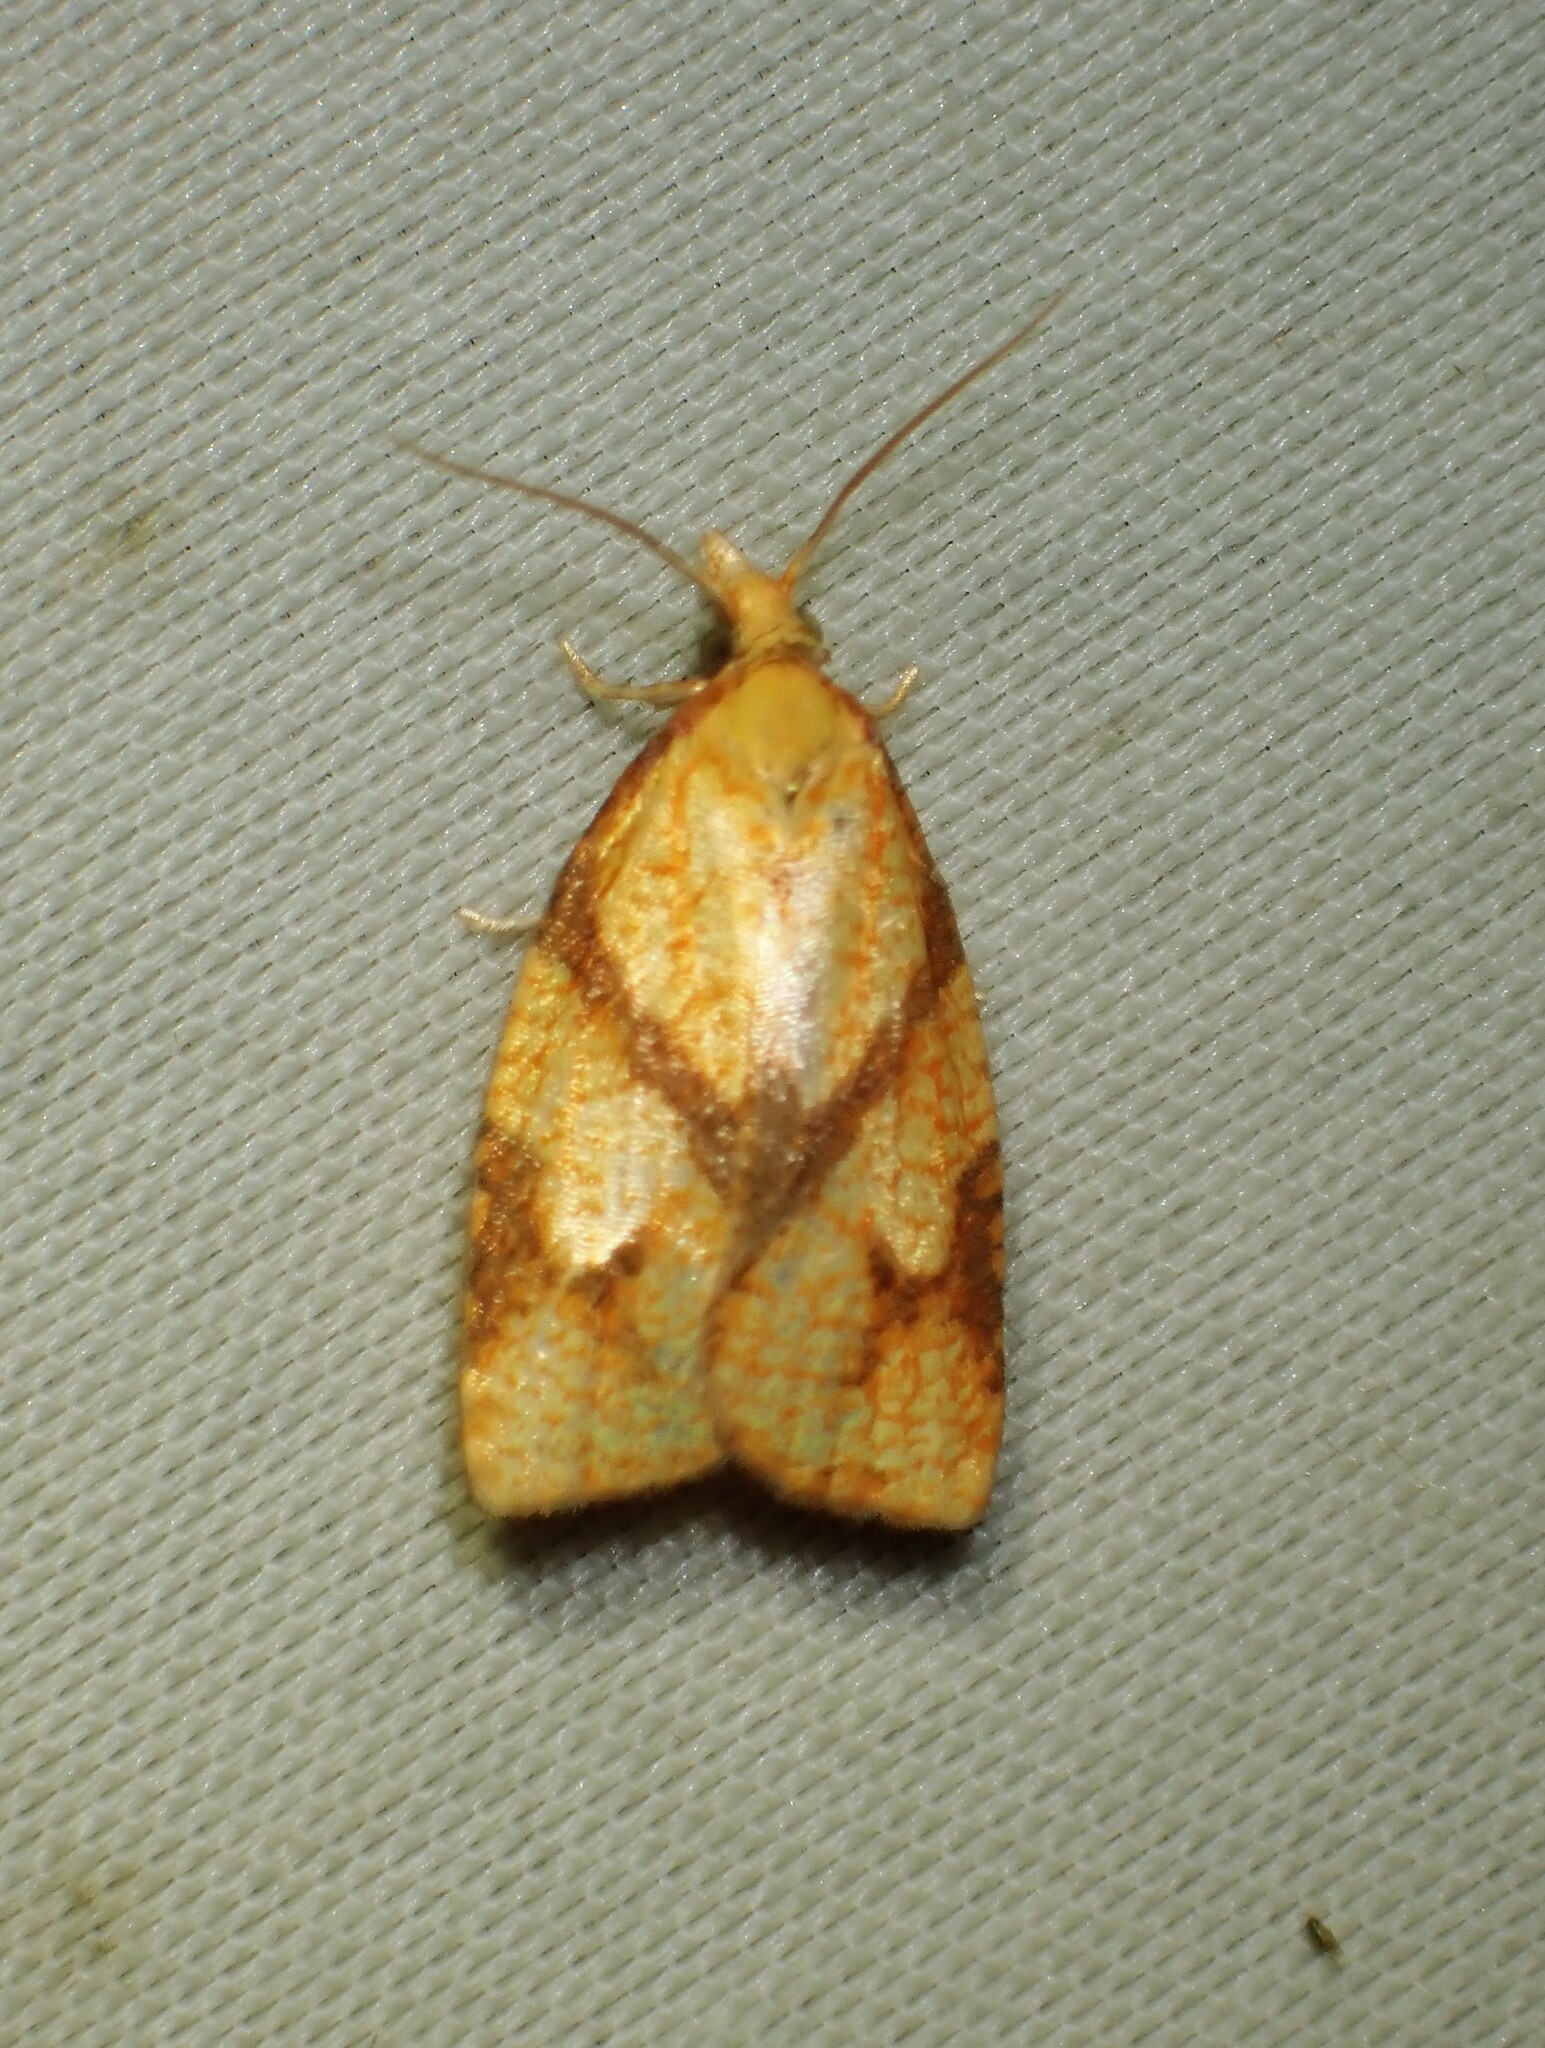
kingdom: Animalia
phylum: Arthropoda
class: Insecta
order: Lepidoptera
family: Tortricidae
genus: Cenopis
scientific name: Cenopis reticulatana
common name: Reticulated fruitworm moth
